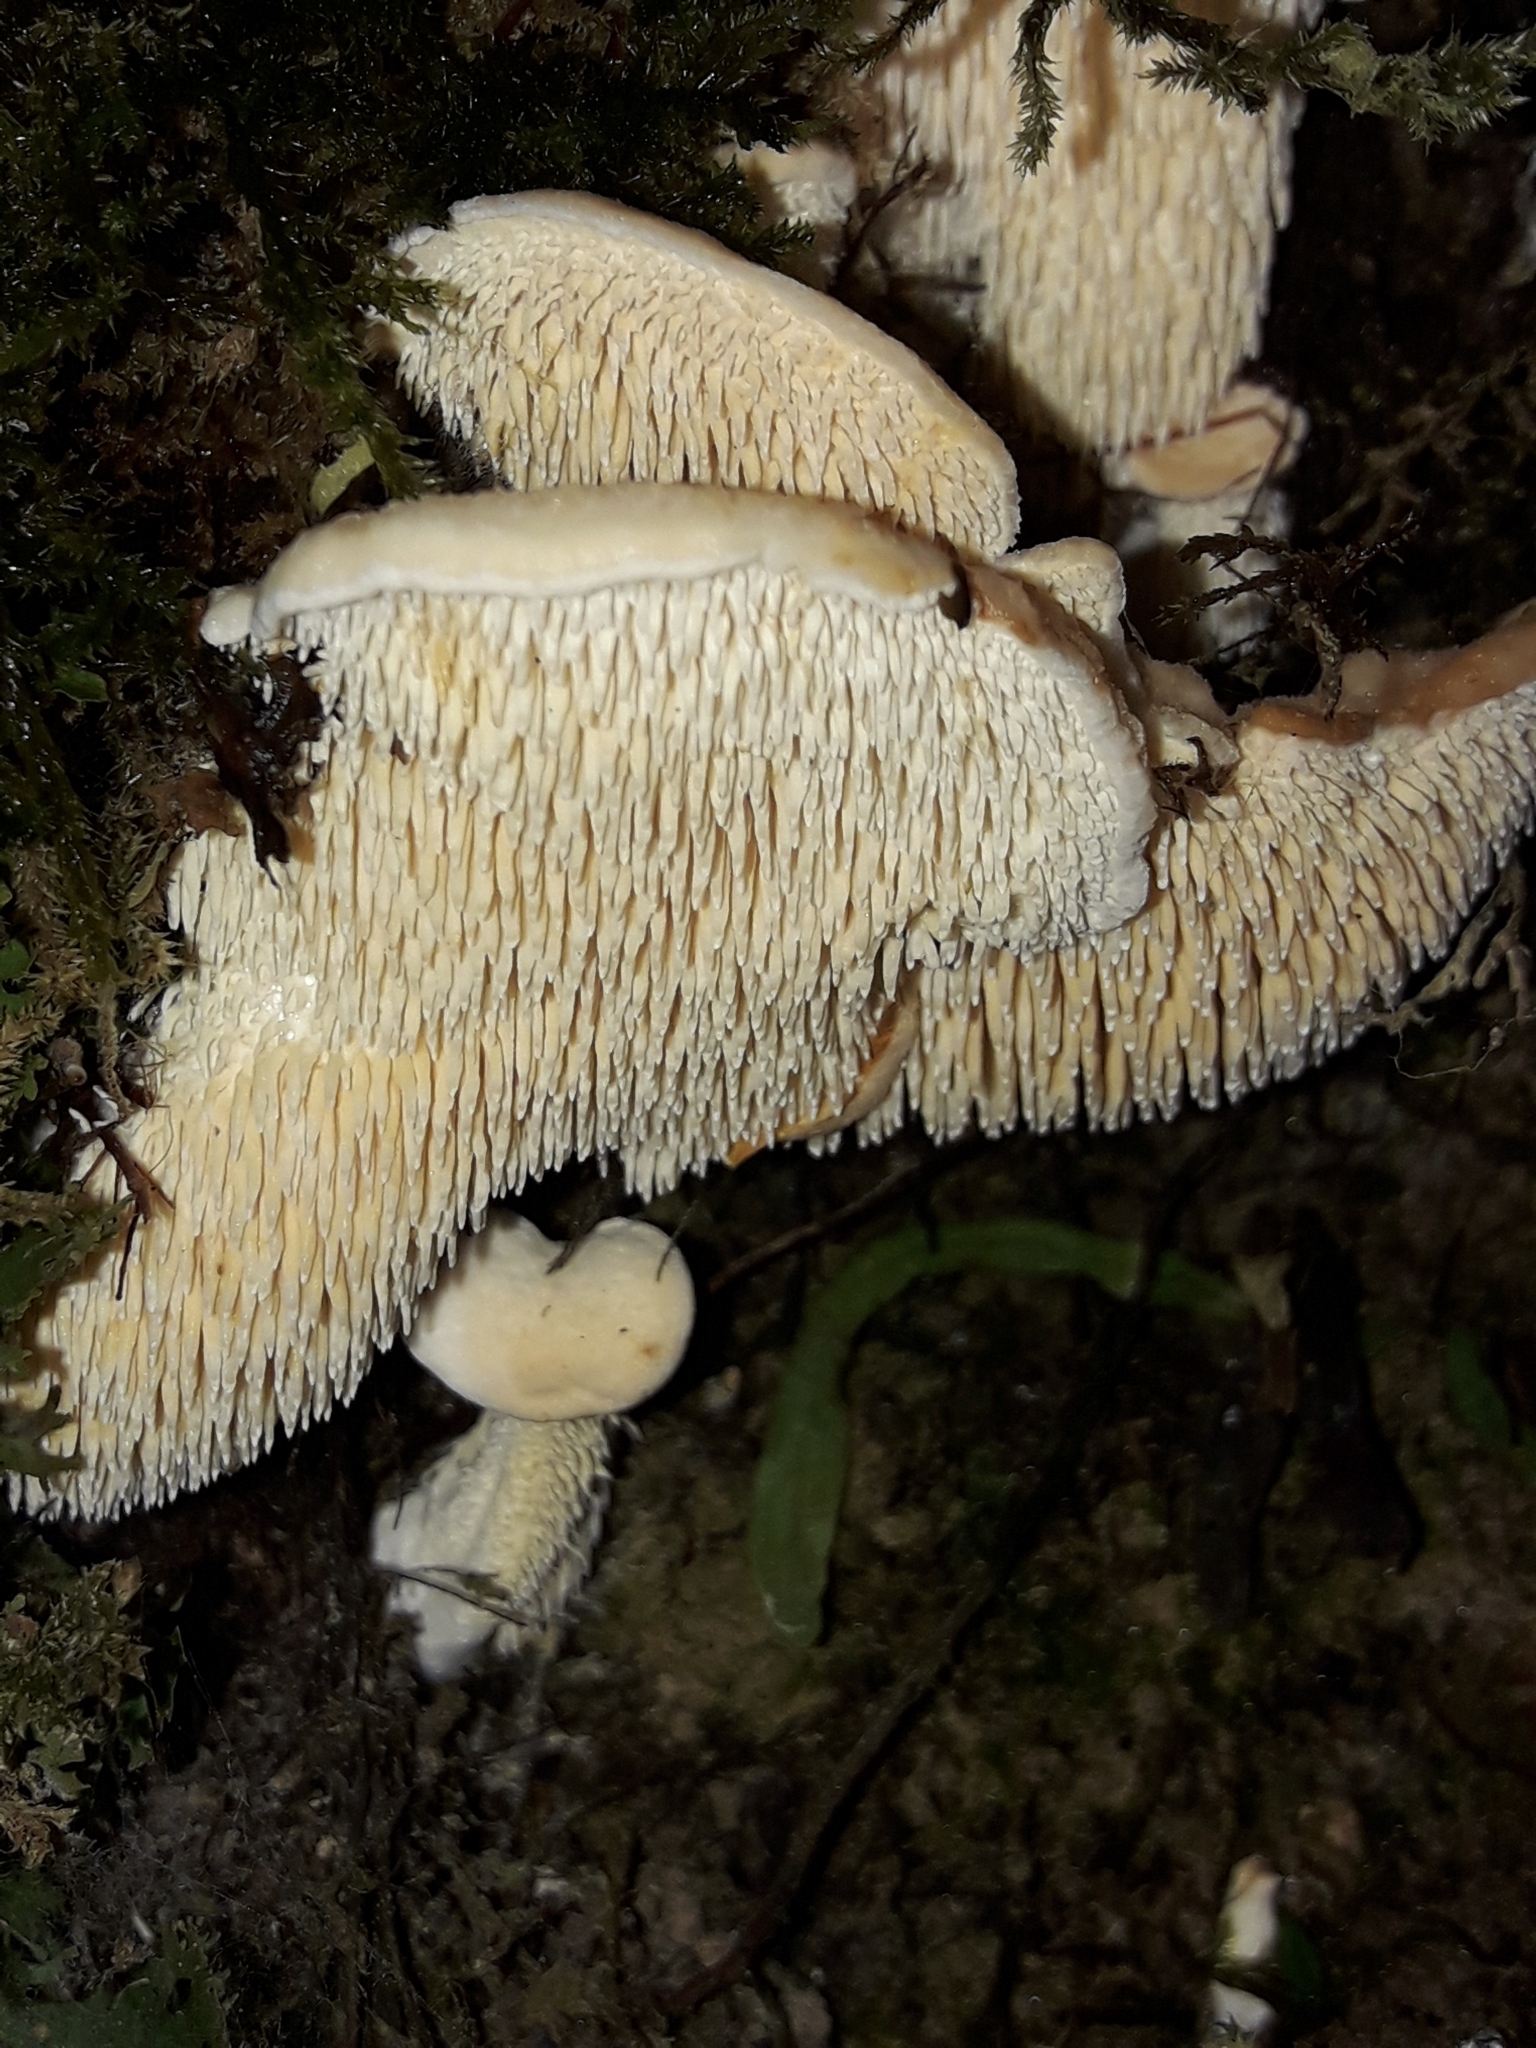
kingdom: Fungi
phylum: Basidiomycota
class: Agaricomycetes
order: Gomphales
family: Clavariadelphaceae
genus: Beenakia
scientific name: Beenakia dacostae
